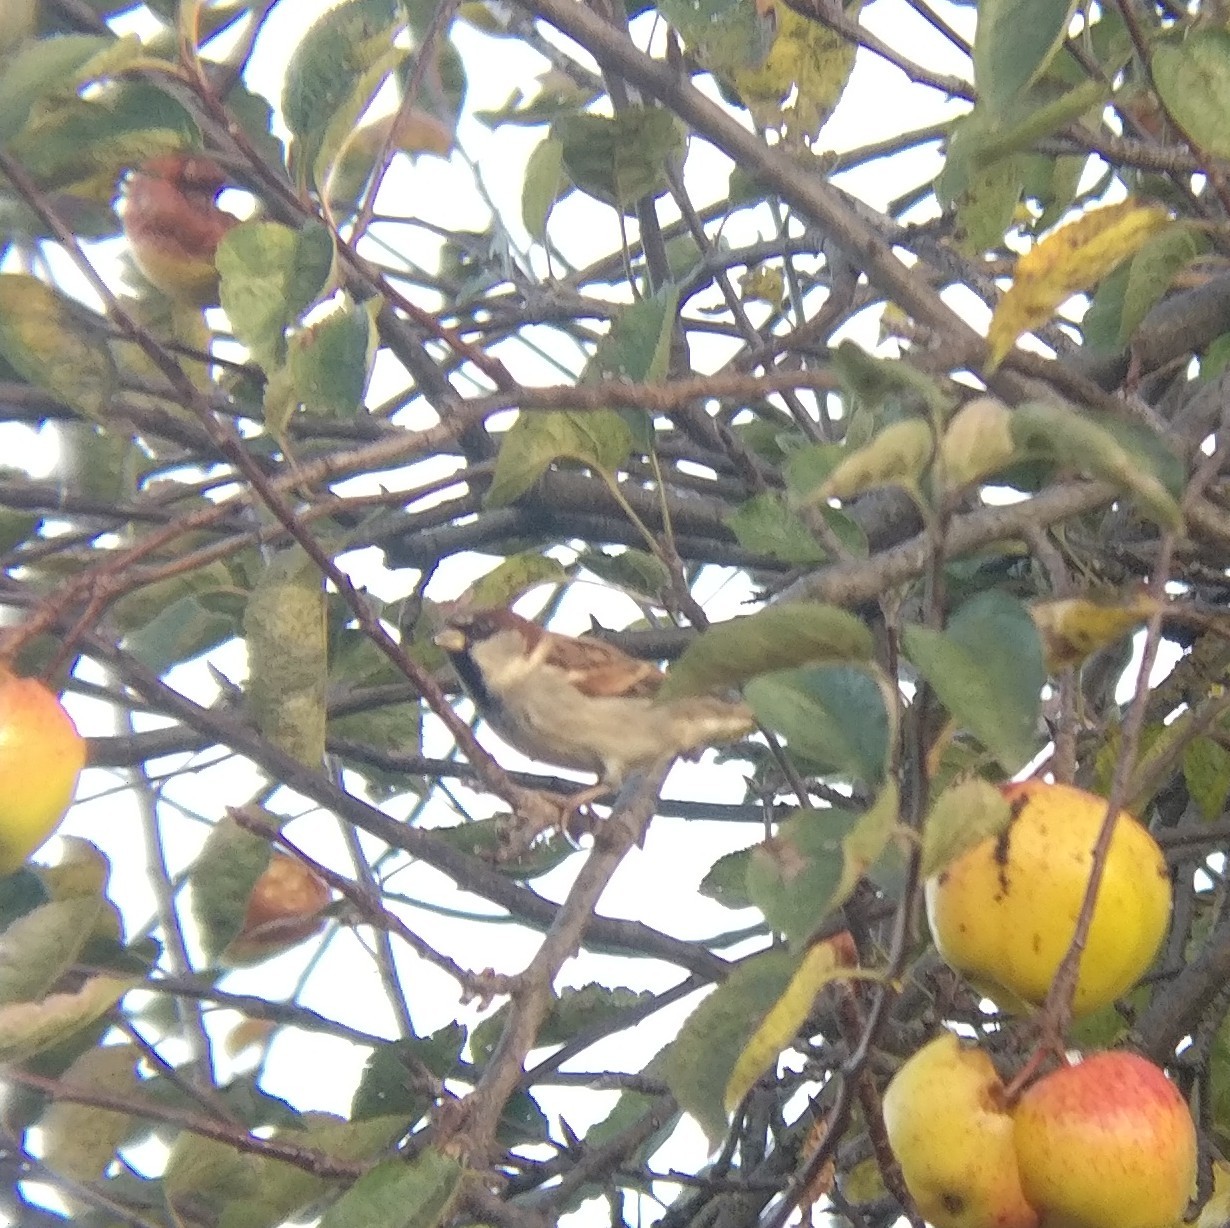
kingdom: Animalia
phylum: Chordata
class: Aves
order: Passeriformes
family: Passeridae
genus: Passer
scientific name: Passer domesticus
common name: House sparrow
